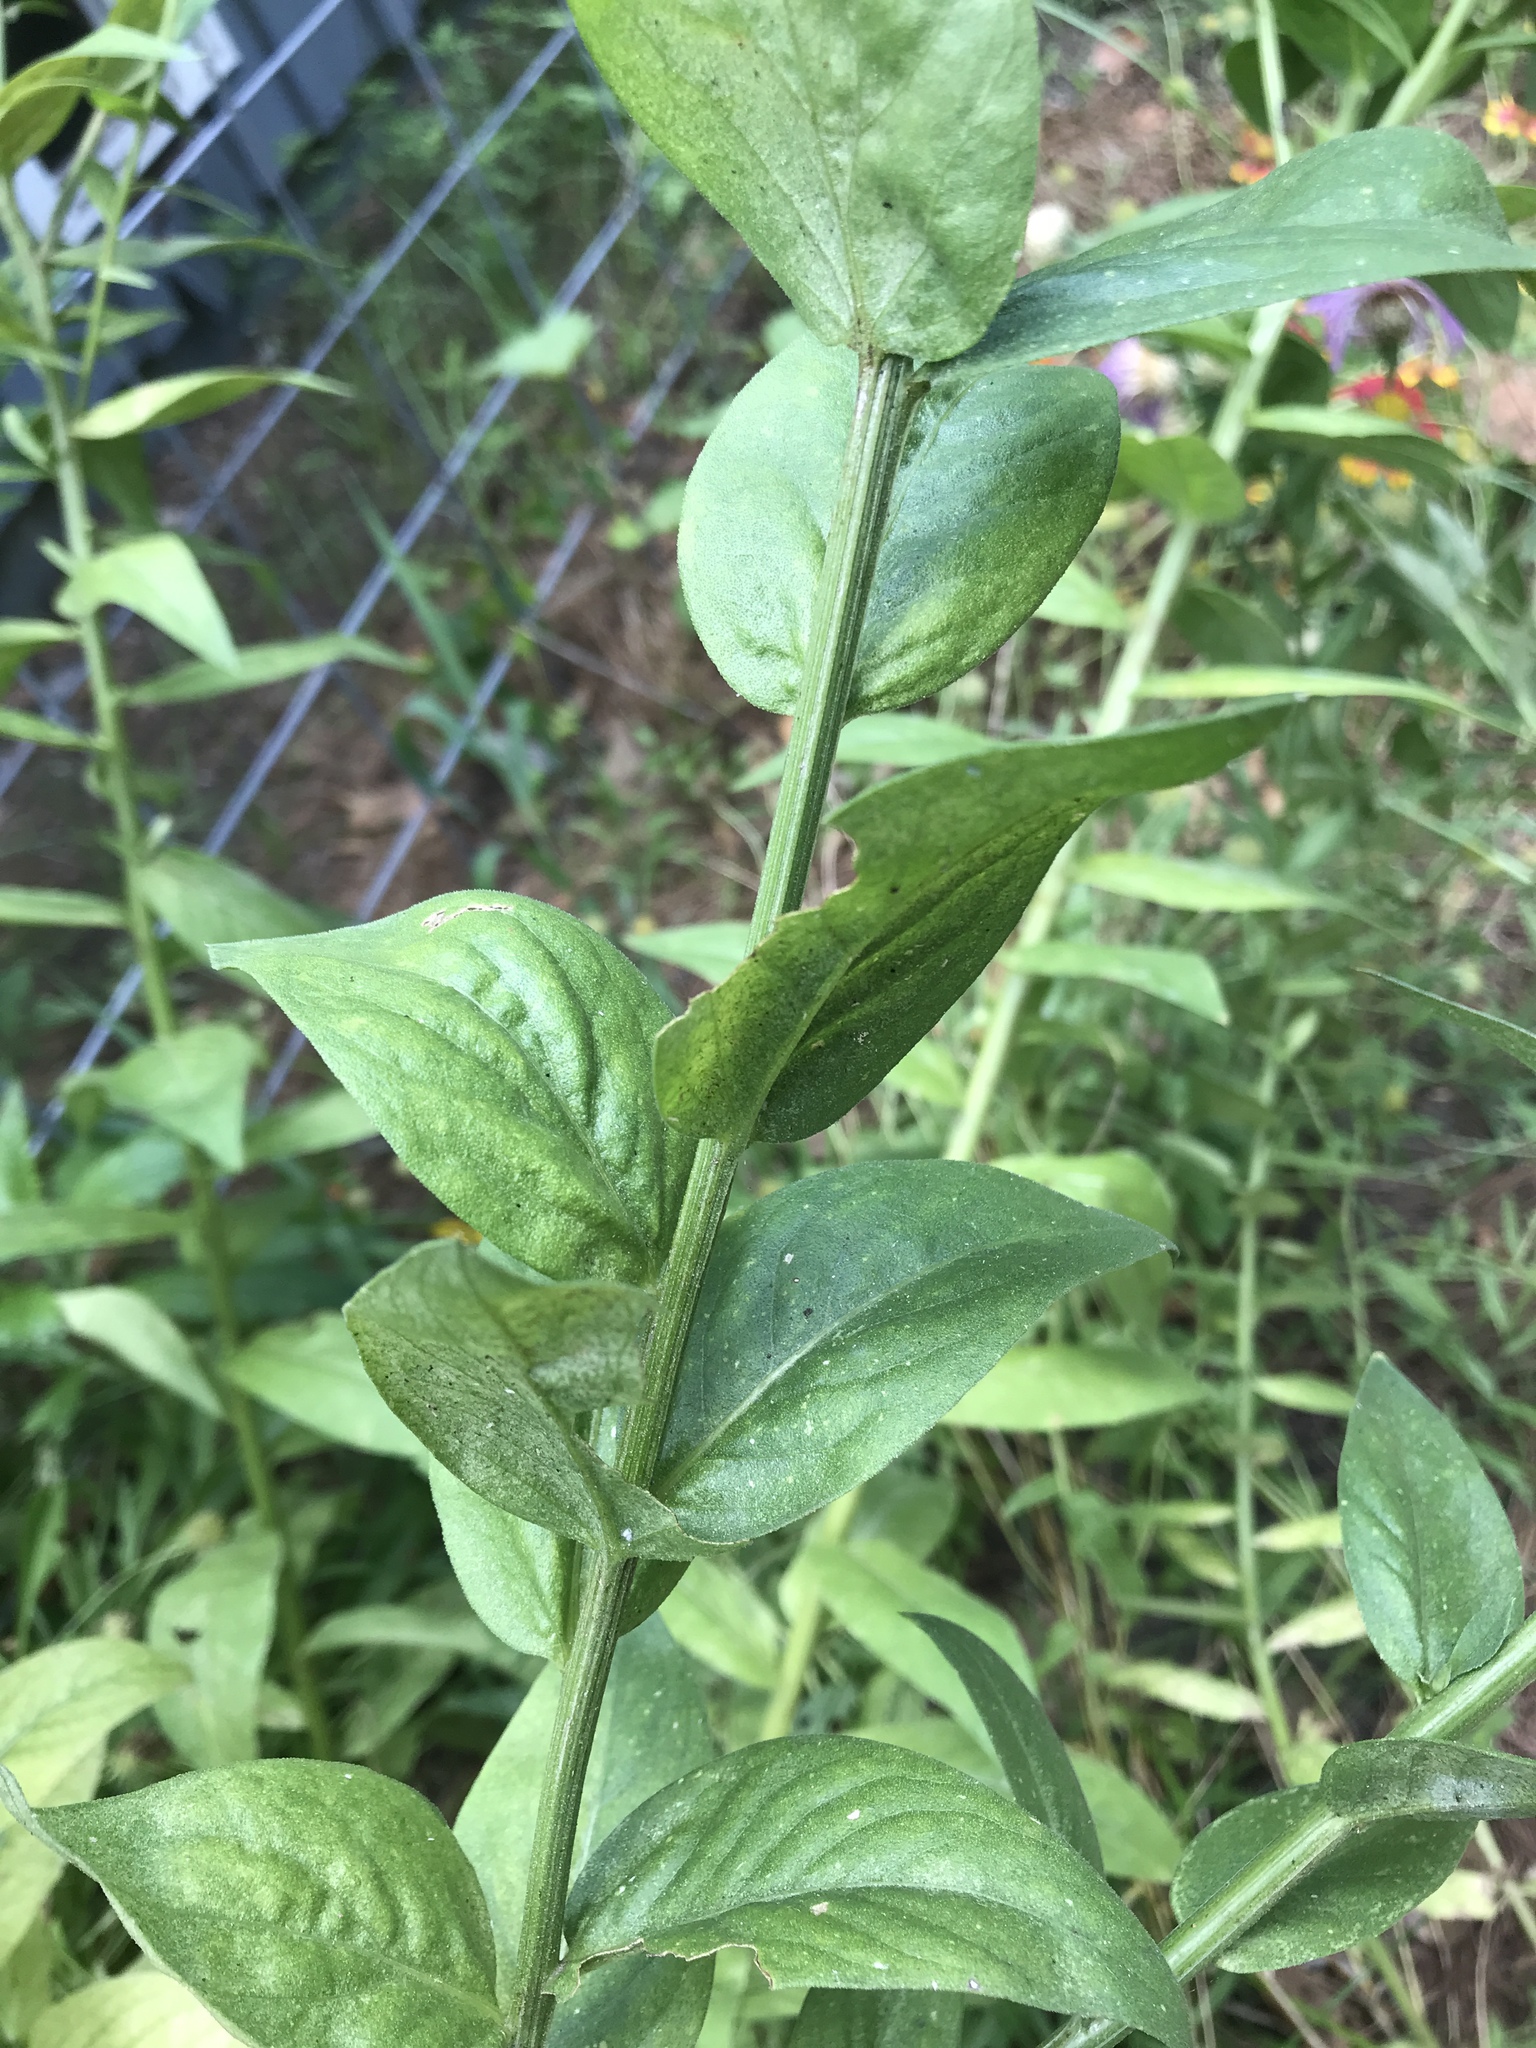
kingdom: Plantae
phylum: Tracheophyta
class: Magnoliopsida
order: Asterales
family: Asteraceae
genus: Plectocephalus
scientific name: Plectocephalus americanus
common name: American basket-flower
